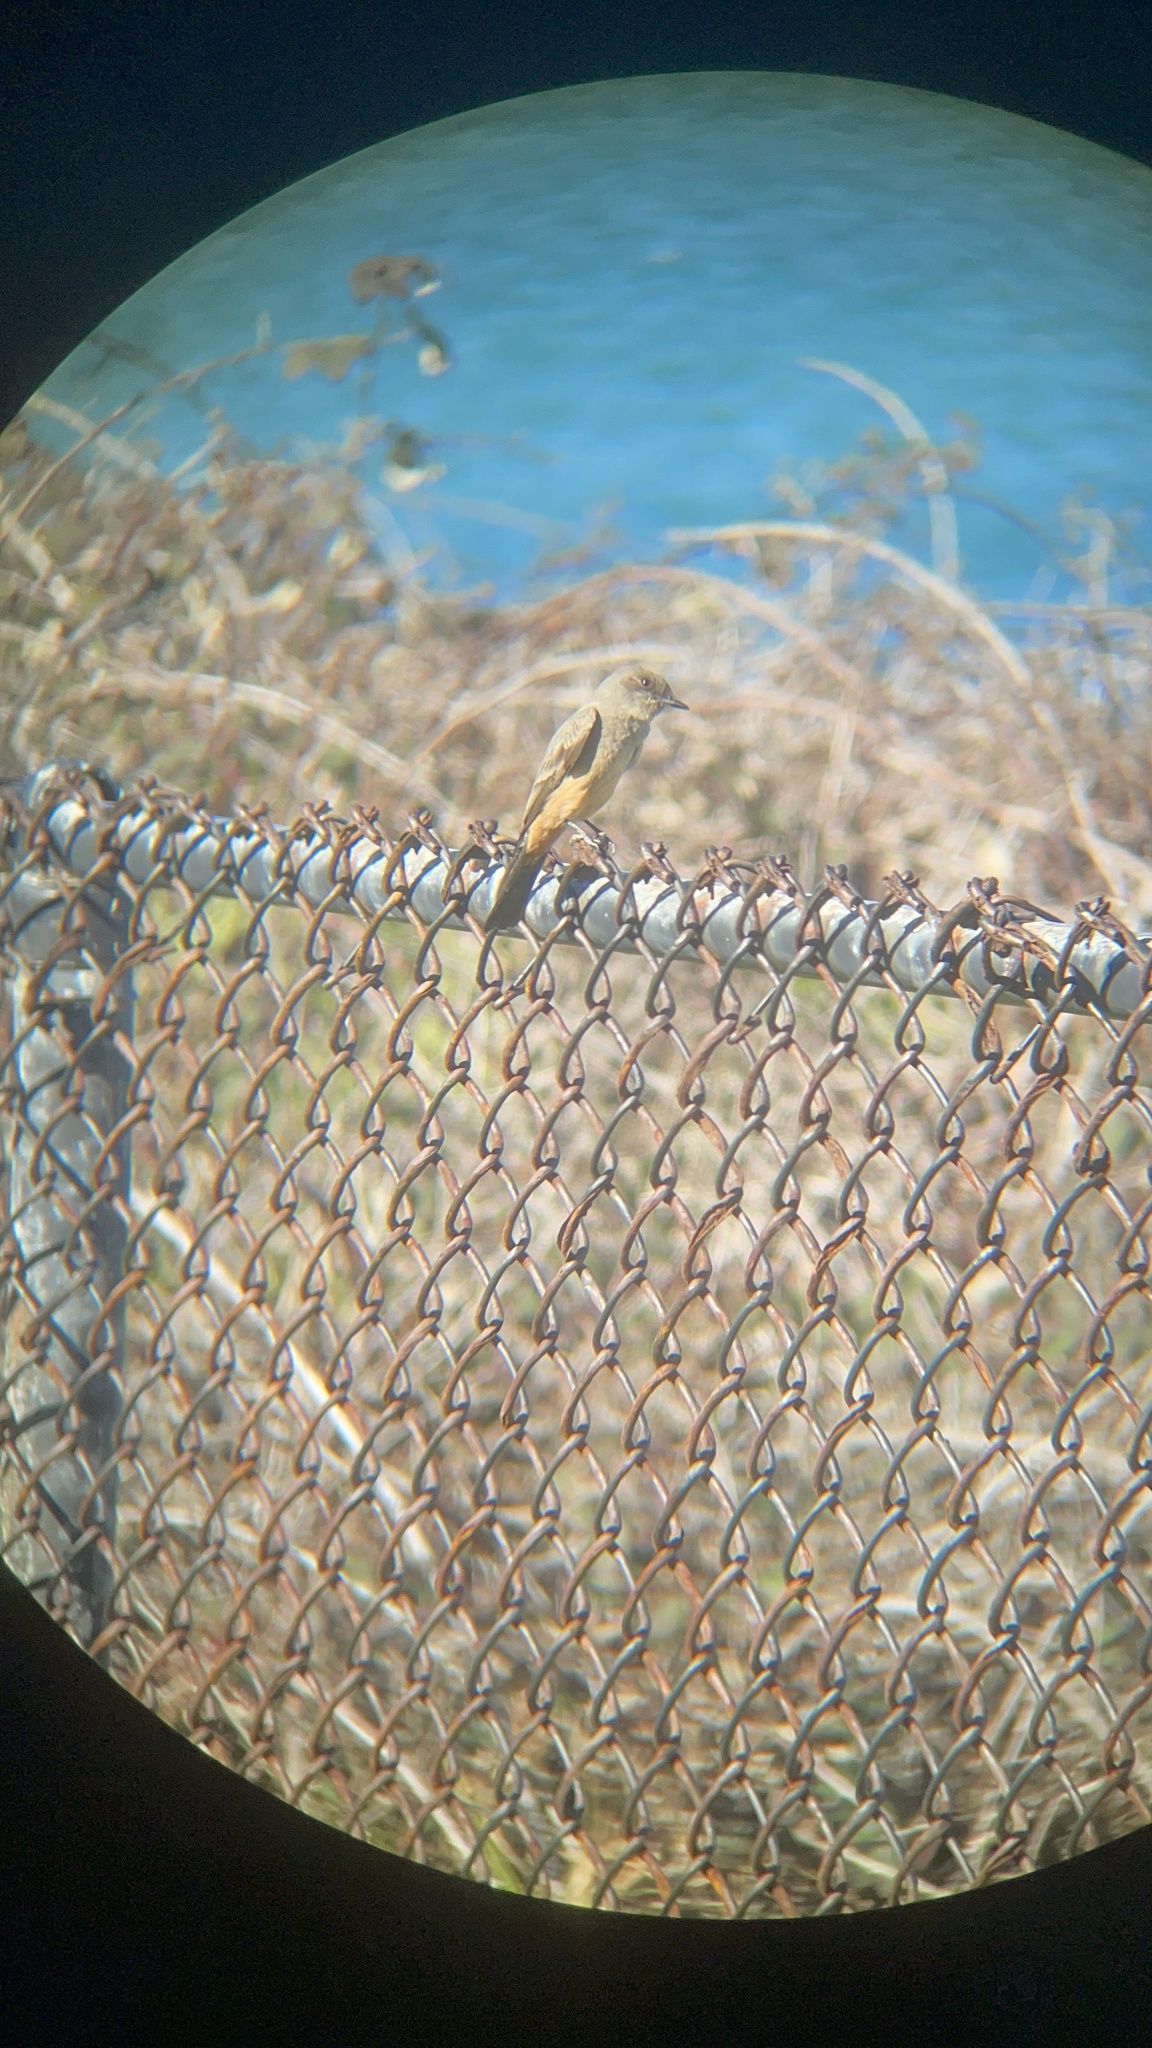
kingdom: Animalia
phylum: Chordata
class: Aves
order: Passeriformes
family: Tyrannidae
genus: Sayornis
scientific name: Sayornis saya
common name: Say's phoebe
